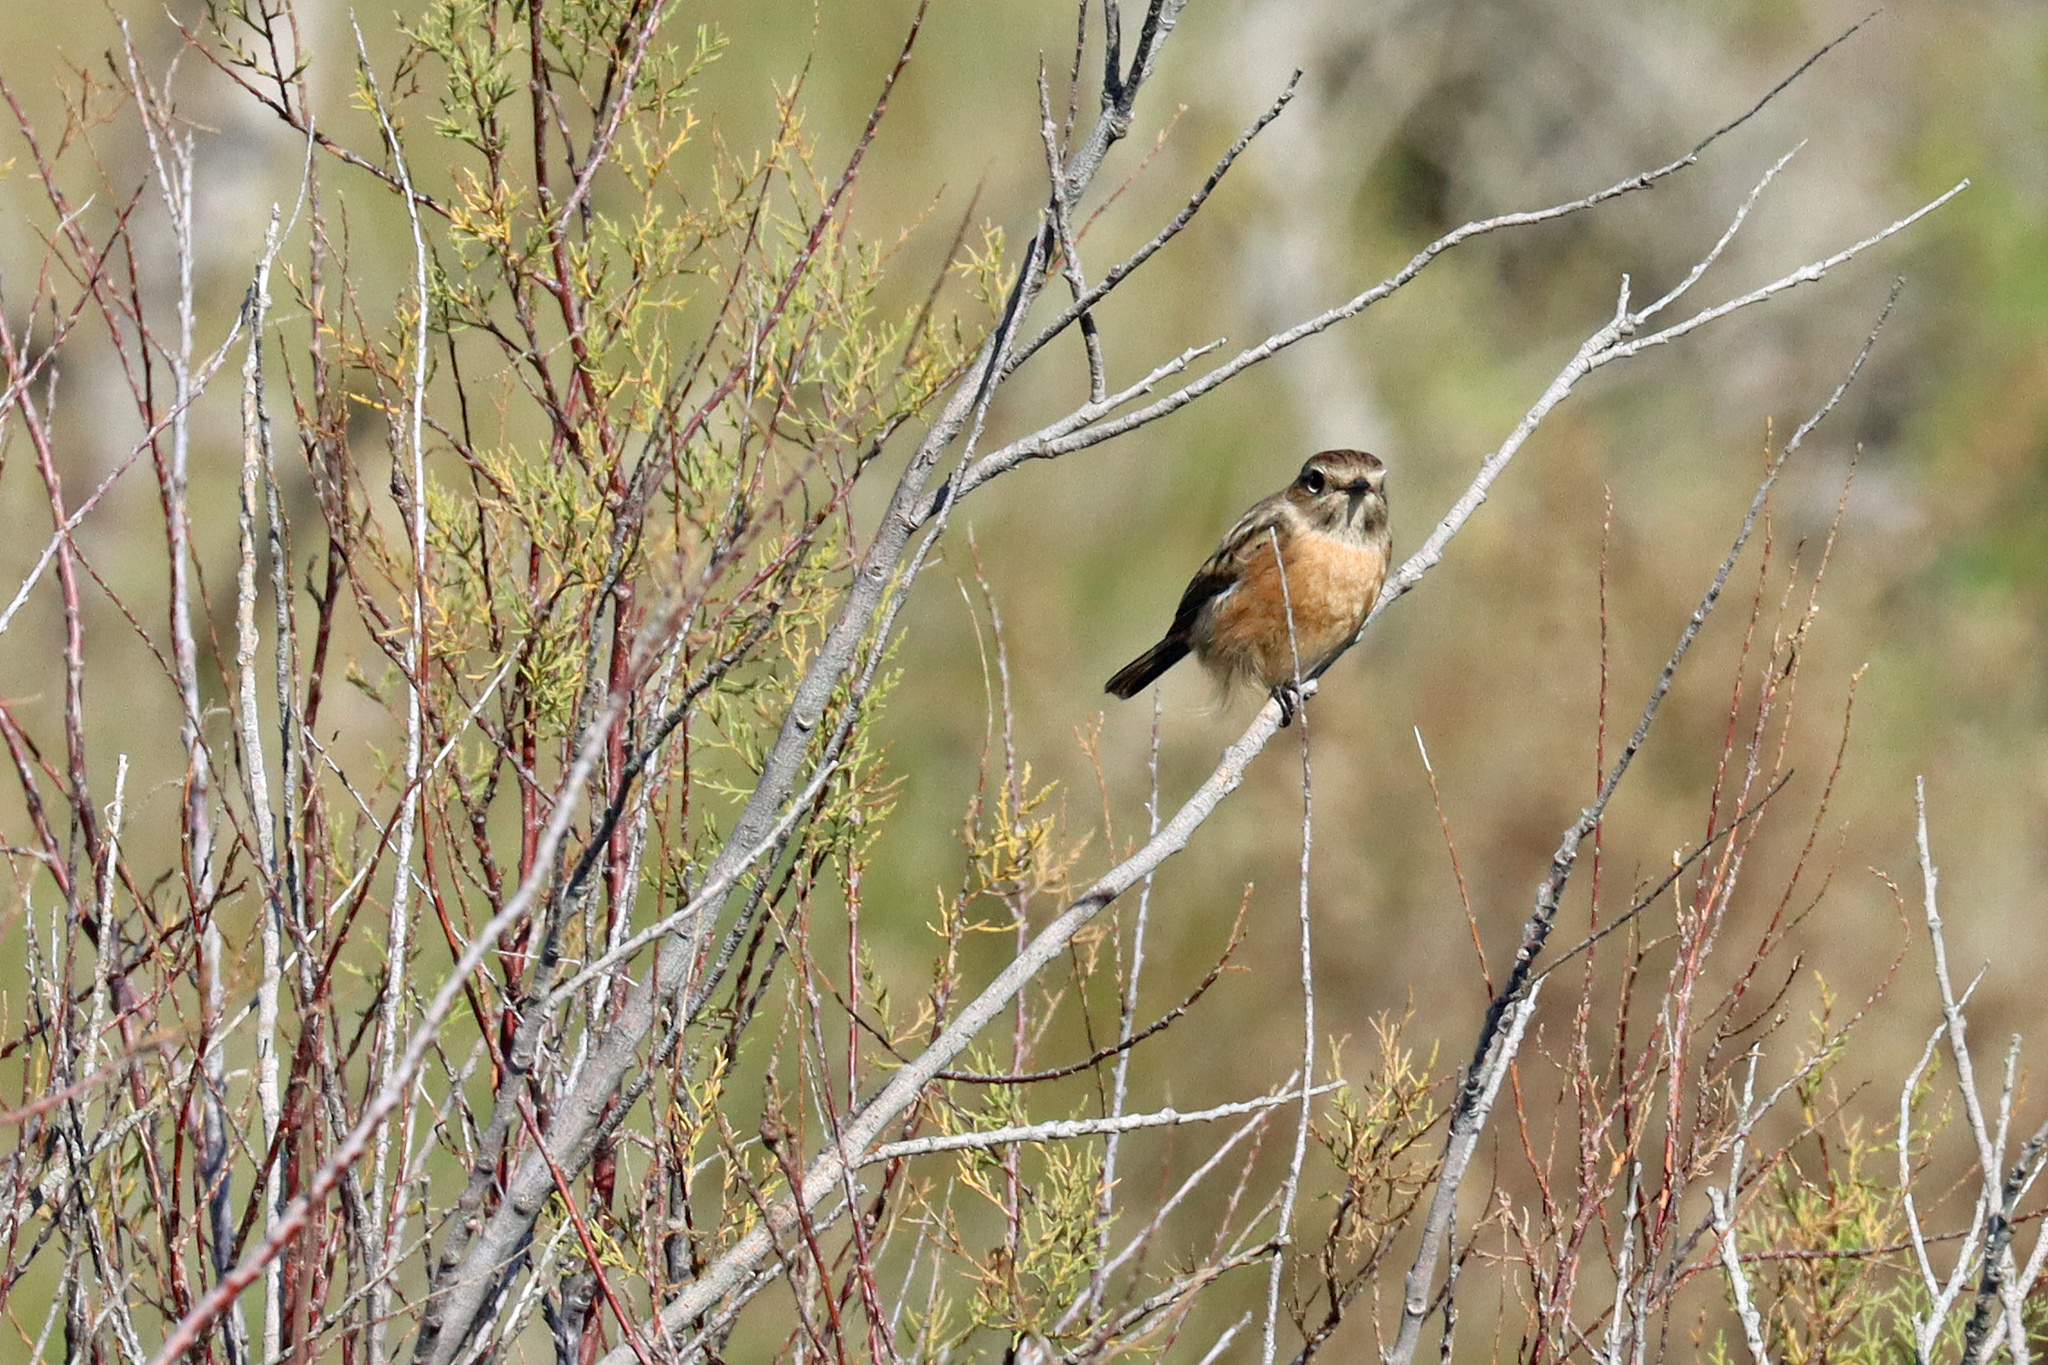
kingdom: Animalia
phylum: Chordata
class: Aves
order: Passeriformes
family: Muscicapidae
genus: Saxicola
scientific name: Saxicola rubicola
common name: European stonechat
